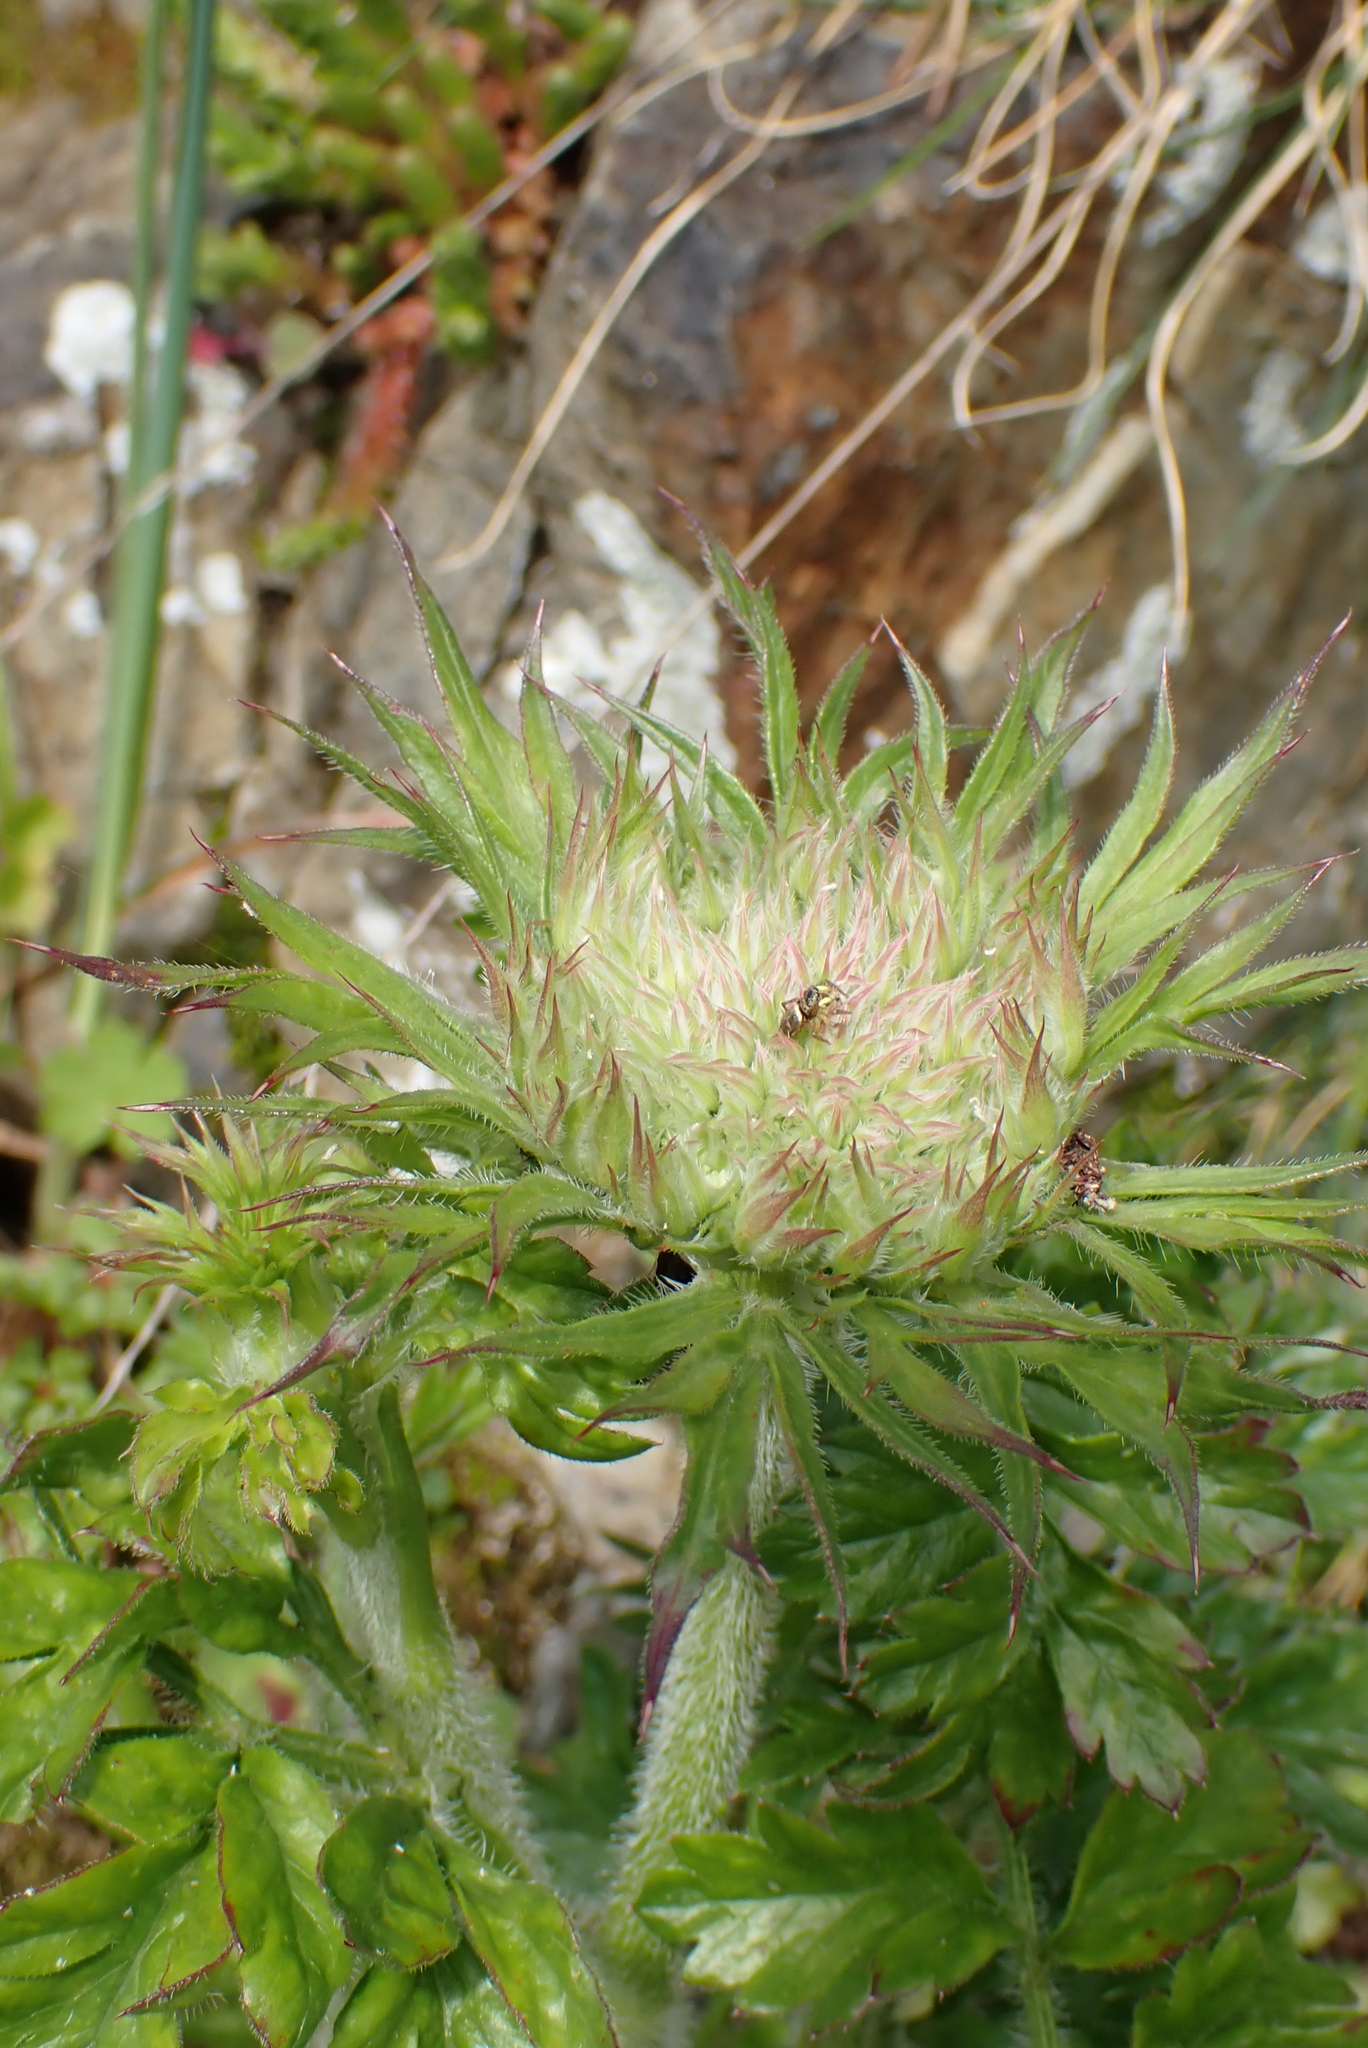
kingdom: Plantae
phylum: Tracheophyta
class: Magnoliopsida
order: Apiales
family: Apiaceae
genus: Daucus
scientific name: Daucus carota
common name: Wild carrot
